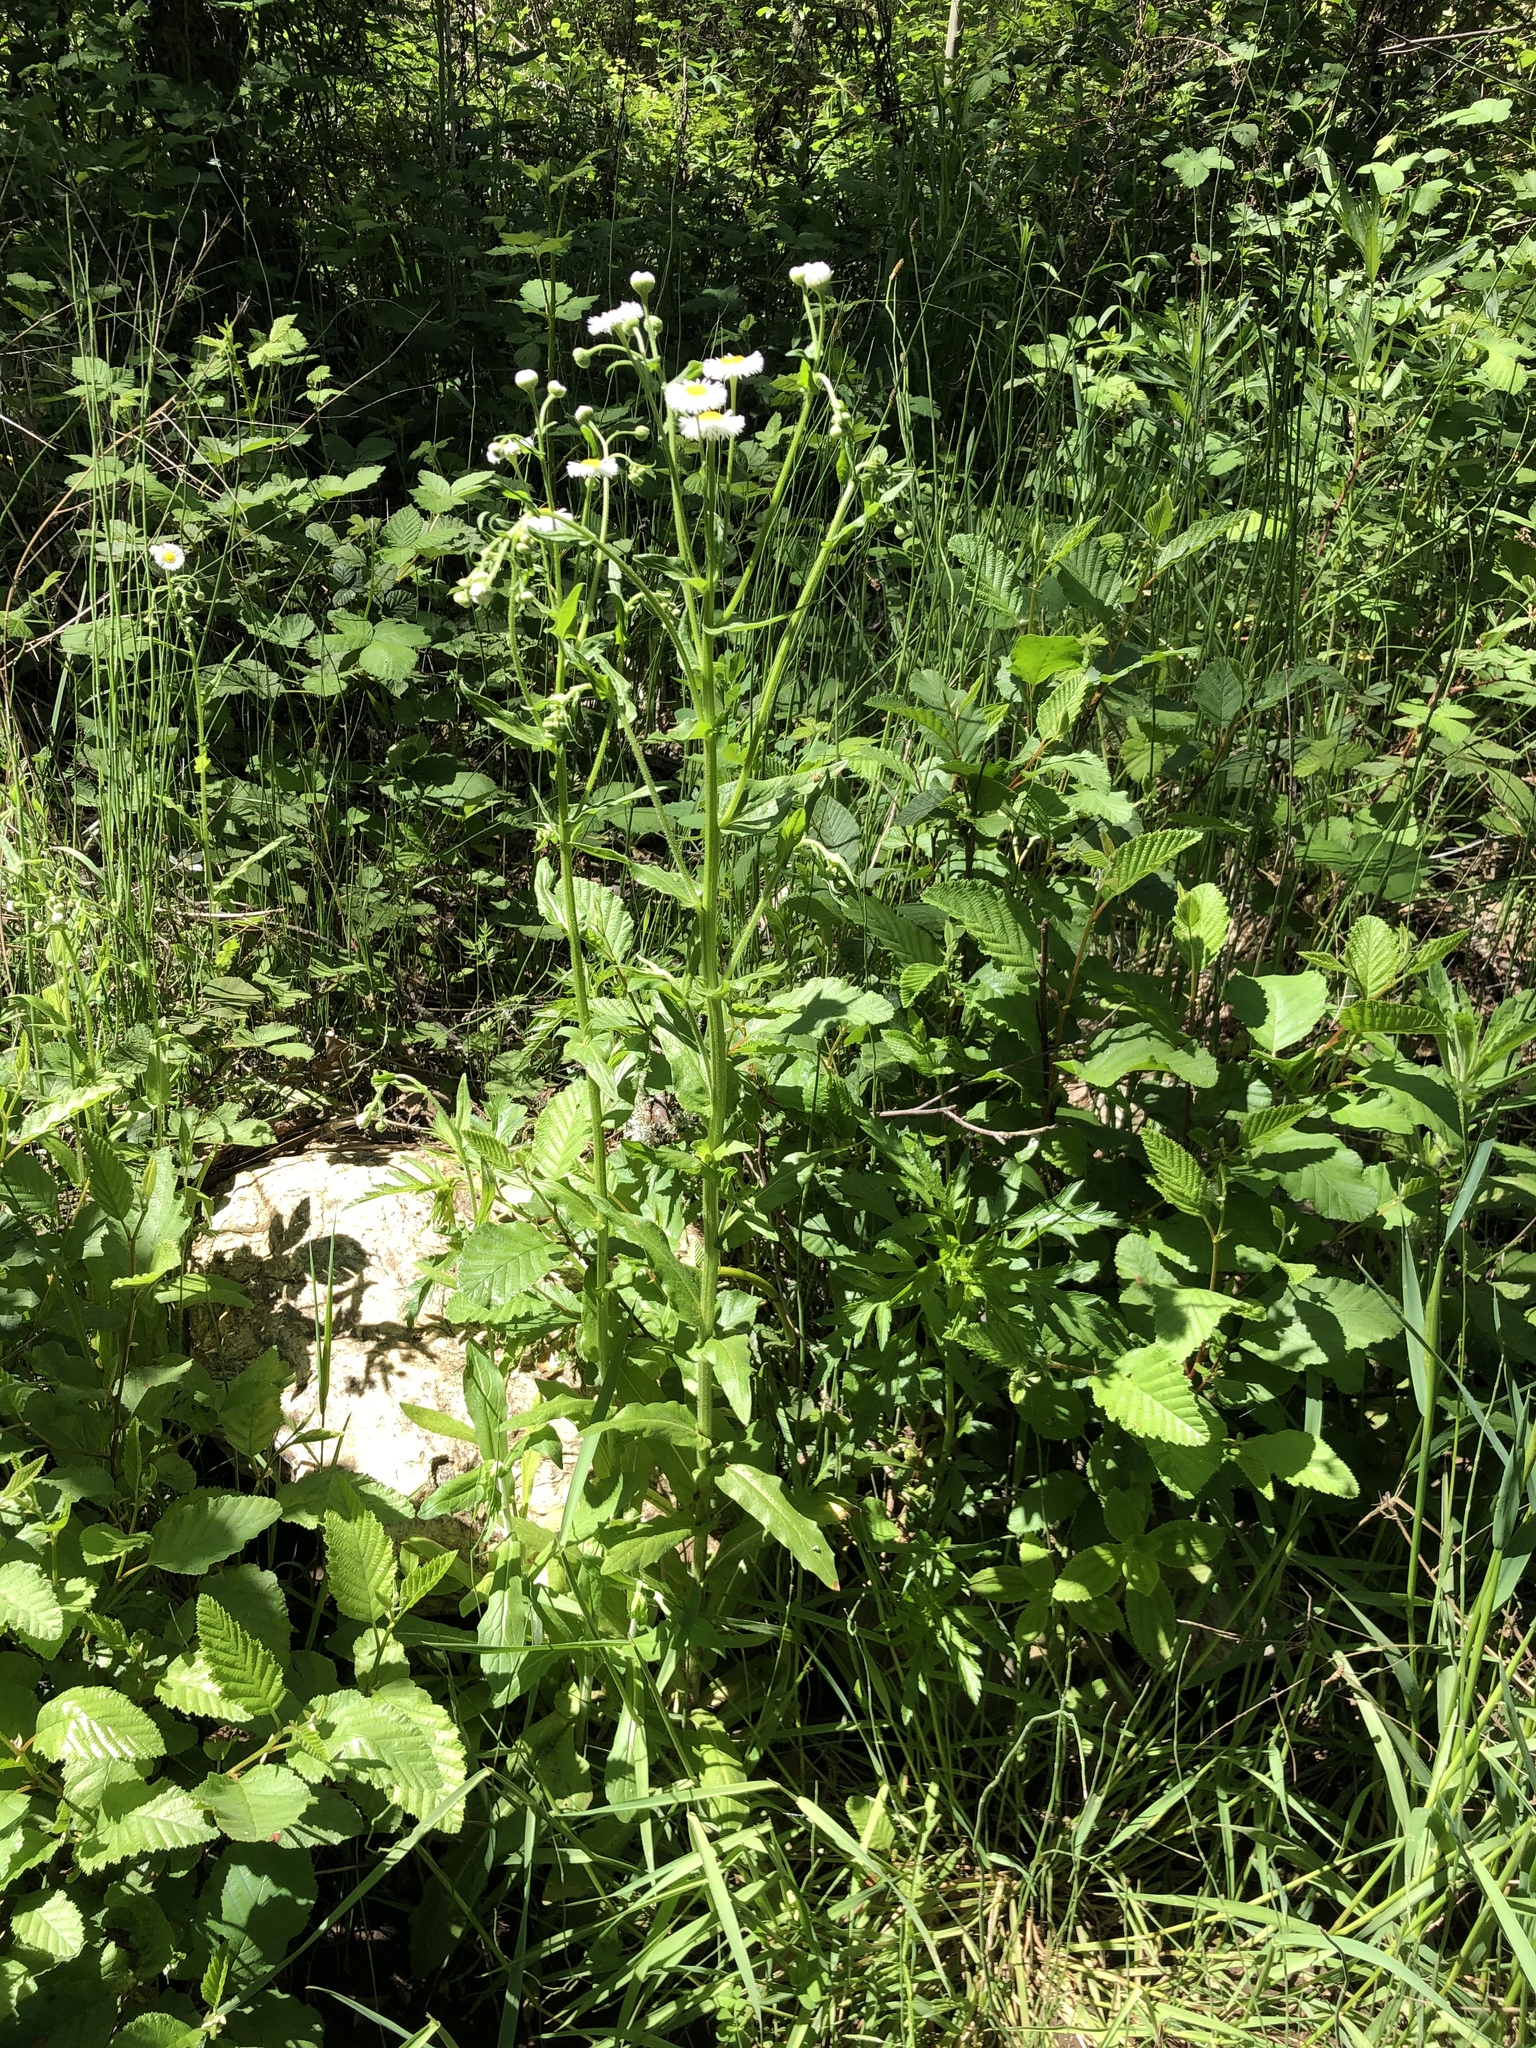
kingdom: Plantae
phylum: Tracheophyta
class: Magnoliopsida
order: Asterales
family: Asteraceae
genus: Erigeron
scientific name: Erigeron philadelphicus
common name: Robin's-plantain
